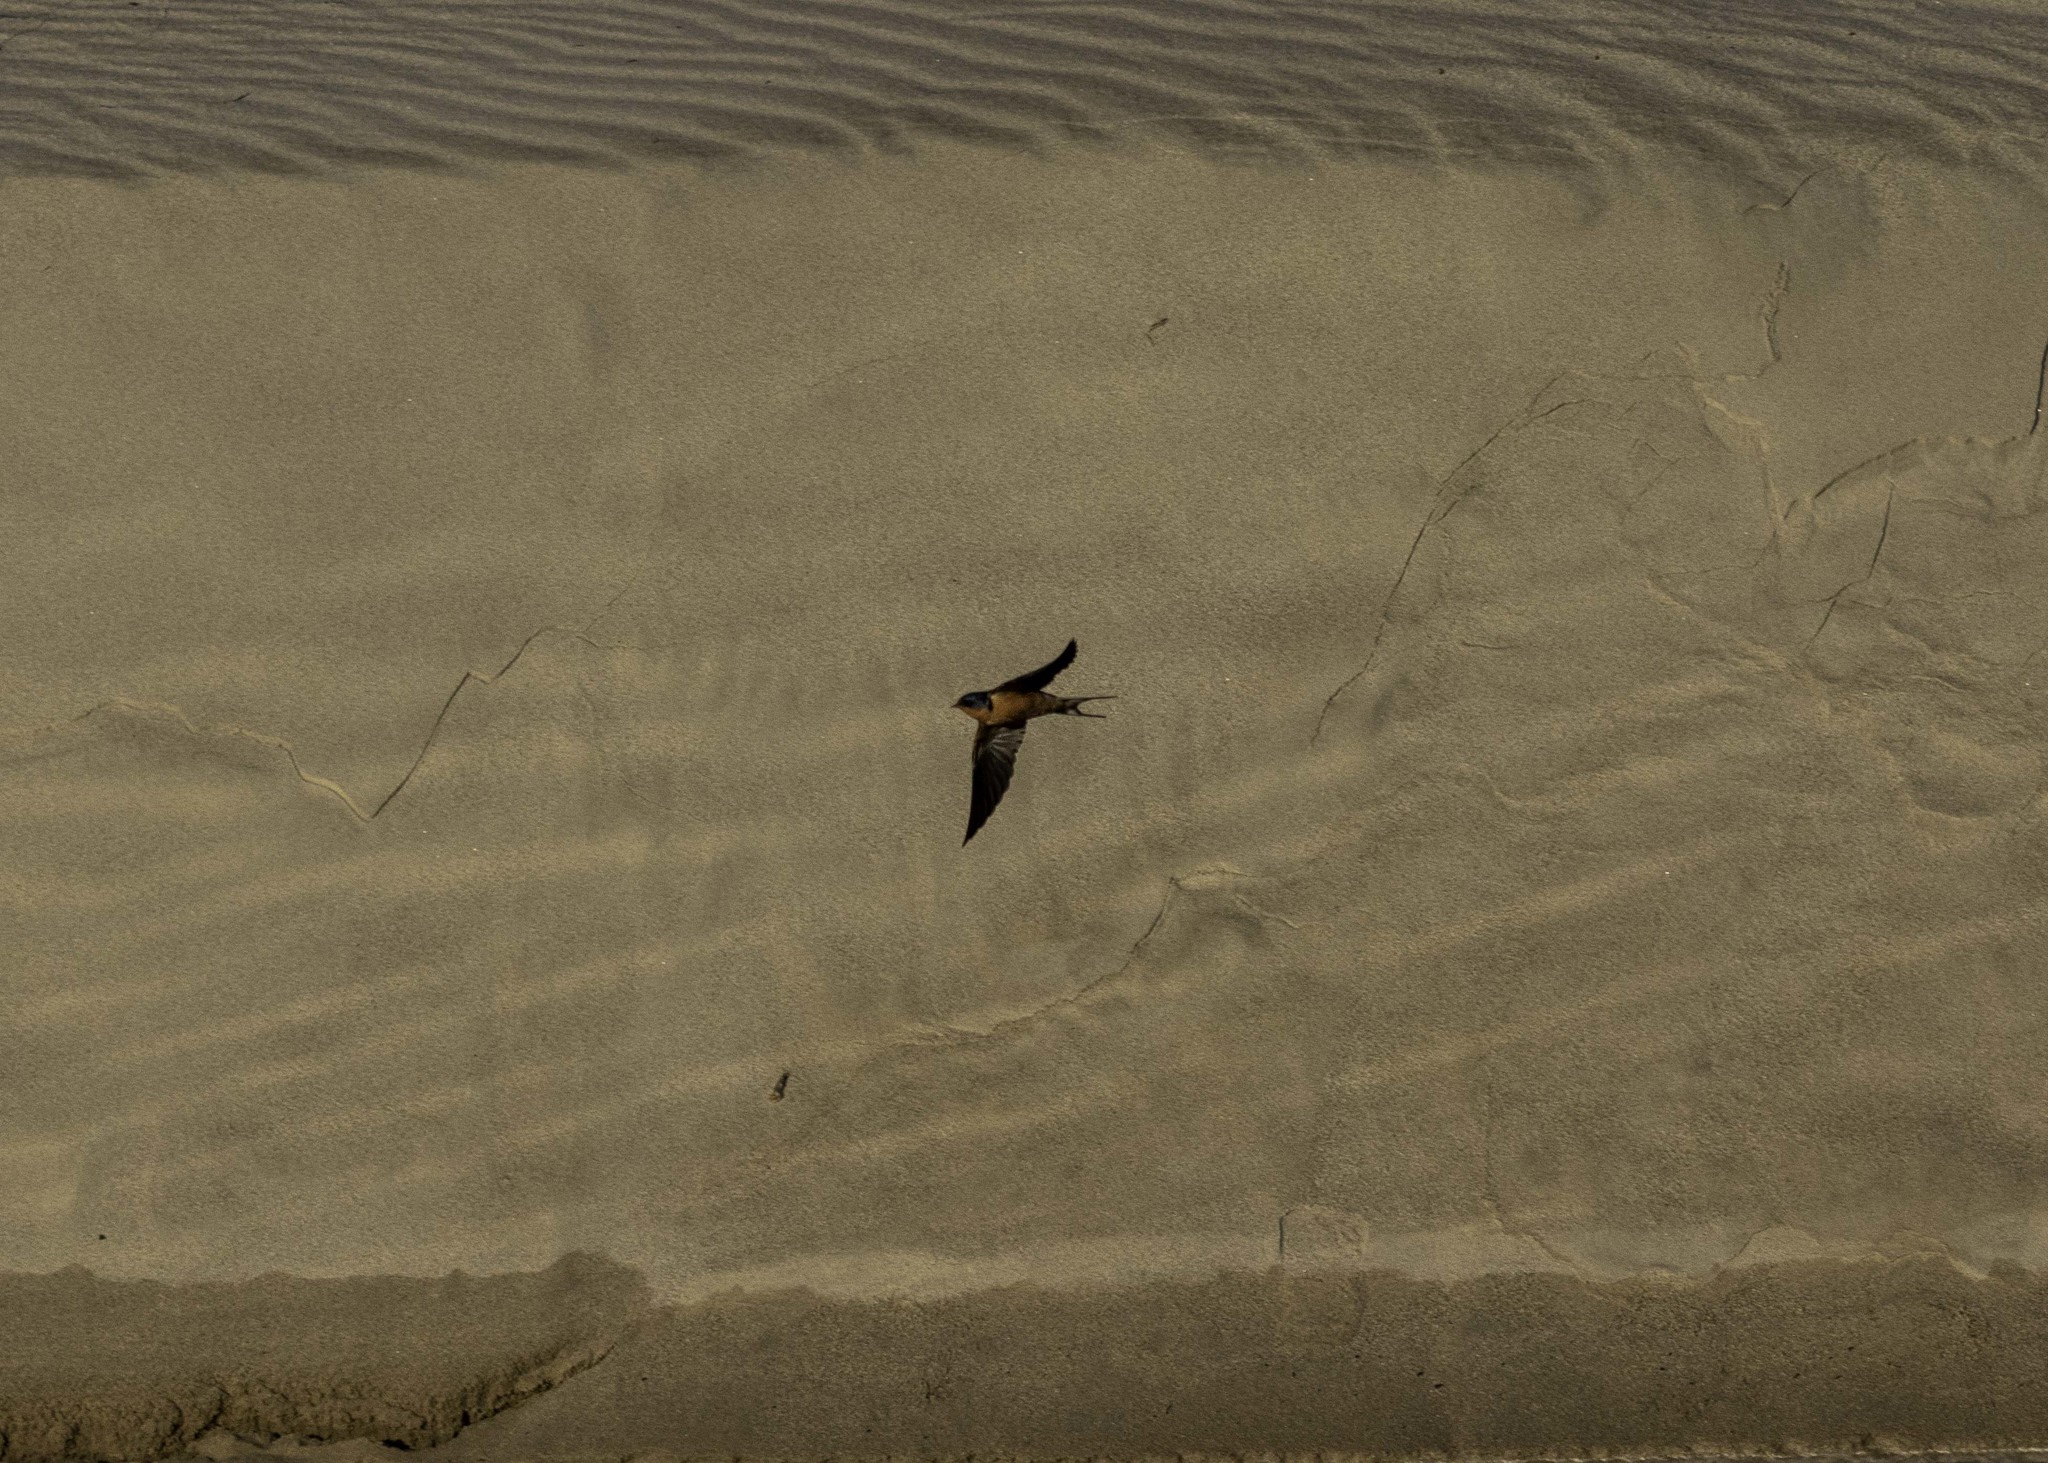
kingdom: Animalia
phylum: Chordata
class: Aves
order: Passeriformes
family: Hirundinidae
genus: Hirundo
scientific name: Hirundo rustica
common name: Barn swallow
